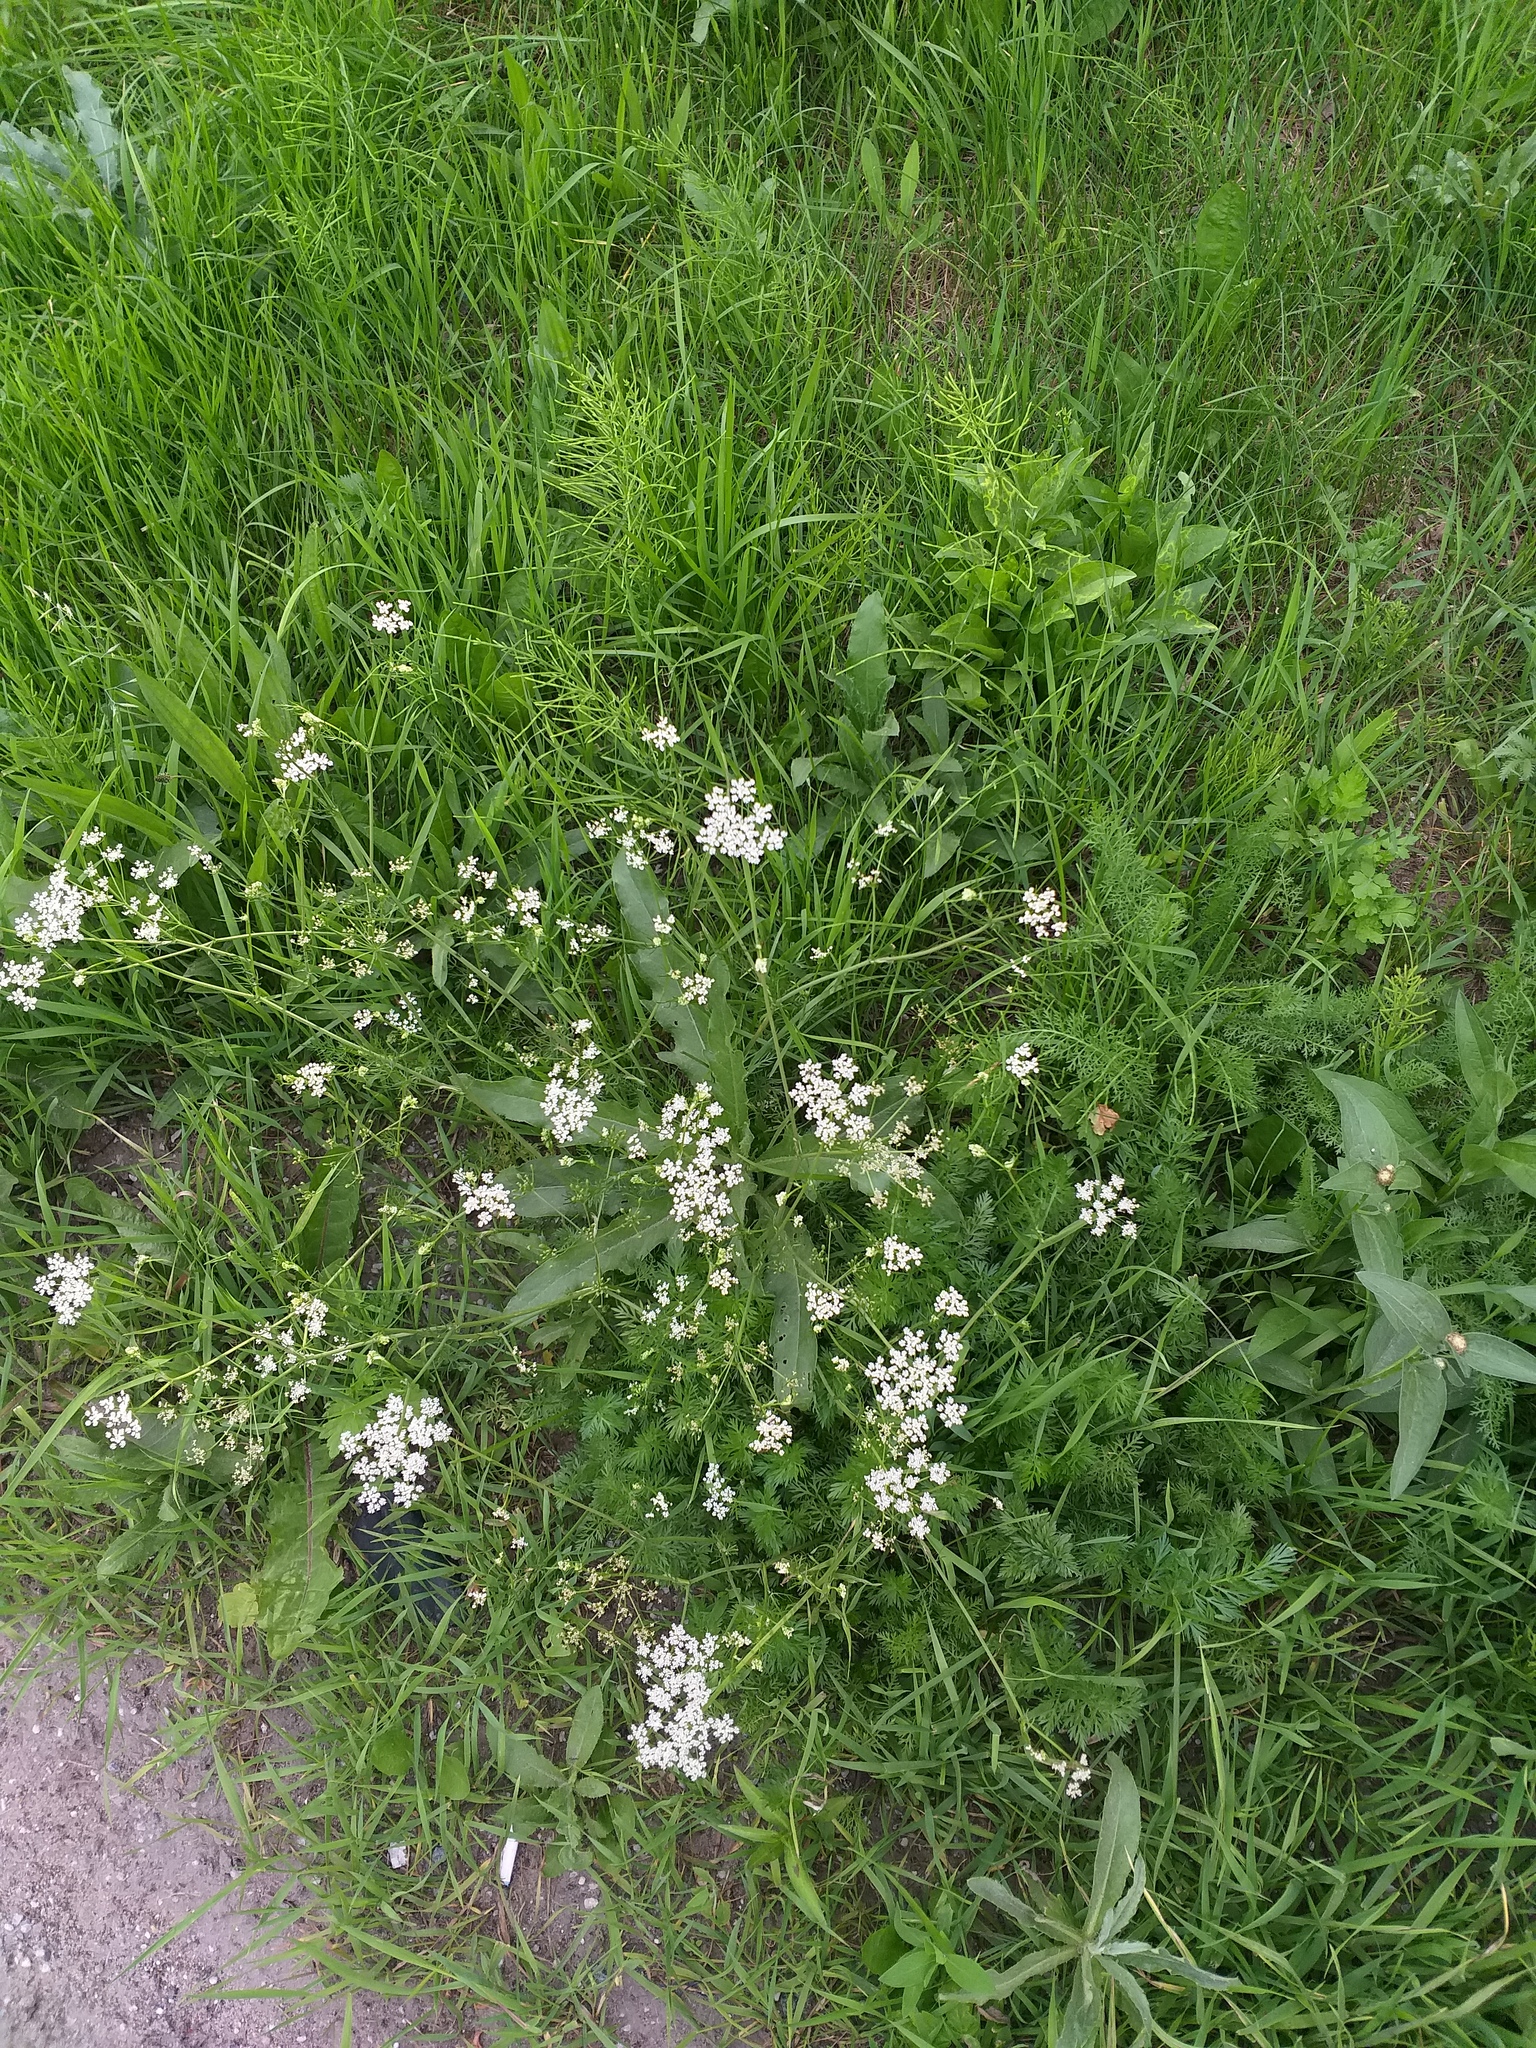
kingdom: Plantae
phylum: Tracheophyta
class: Magnoliopsida
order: Apiales
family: Apiaceae
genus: Carum
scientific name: Carum carvi
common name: Caraway
